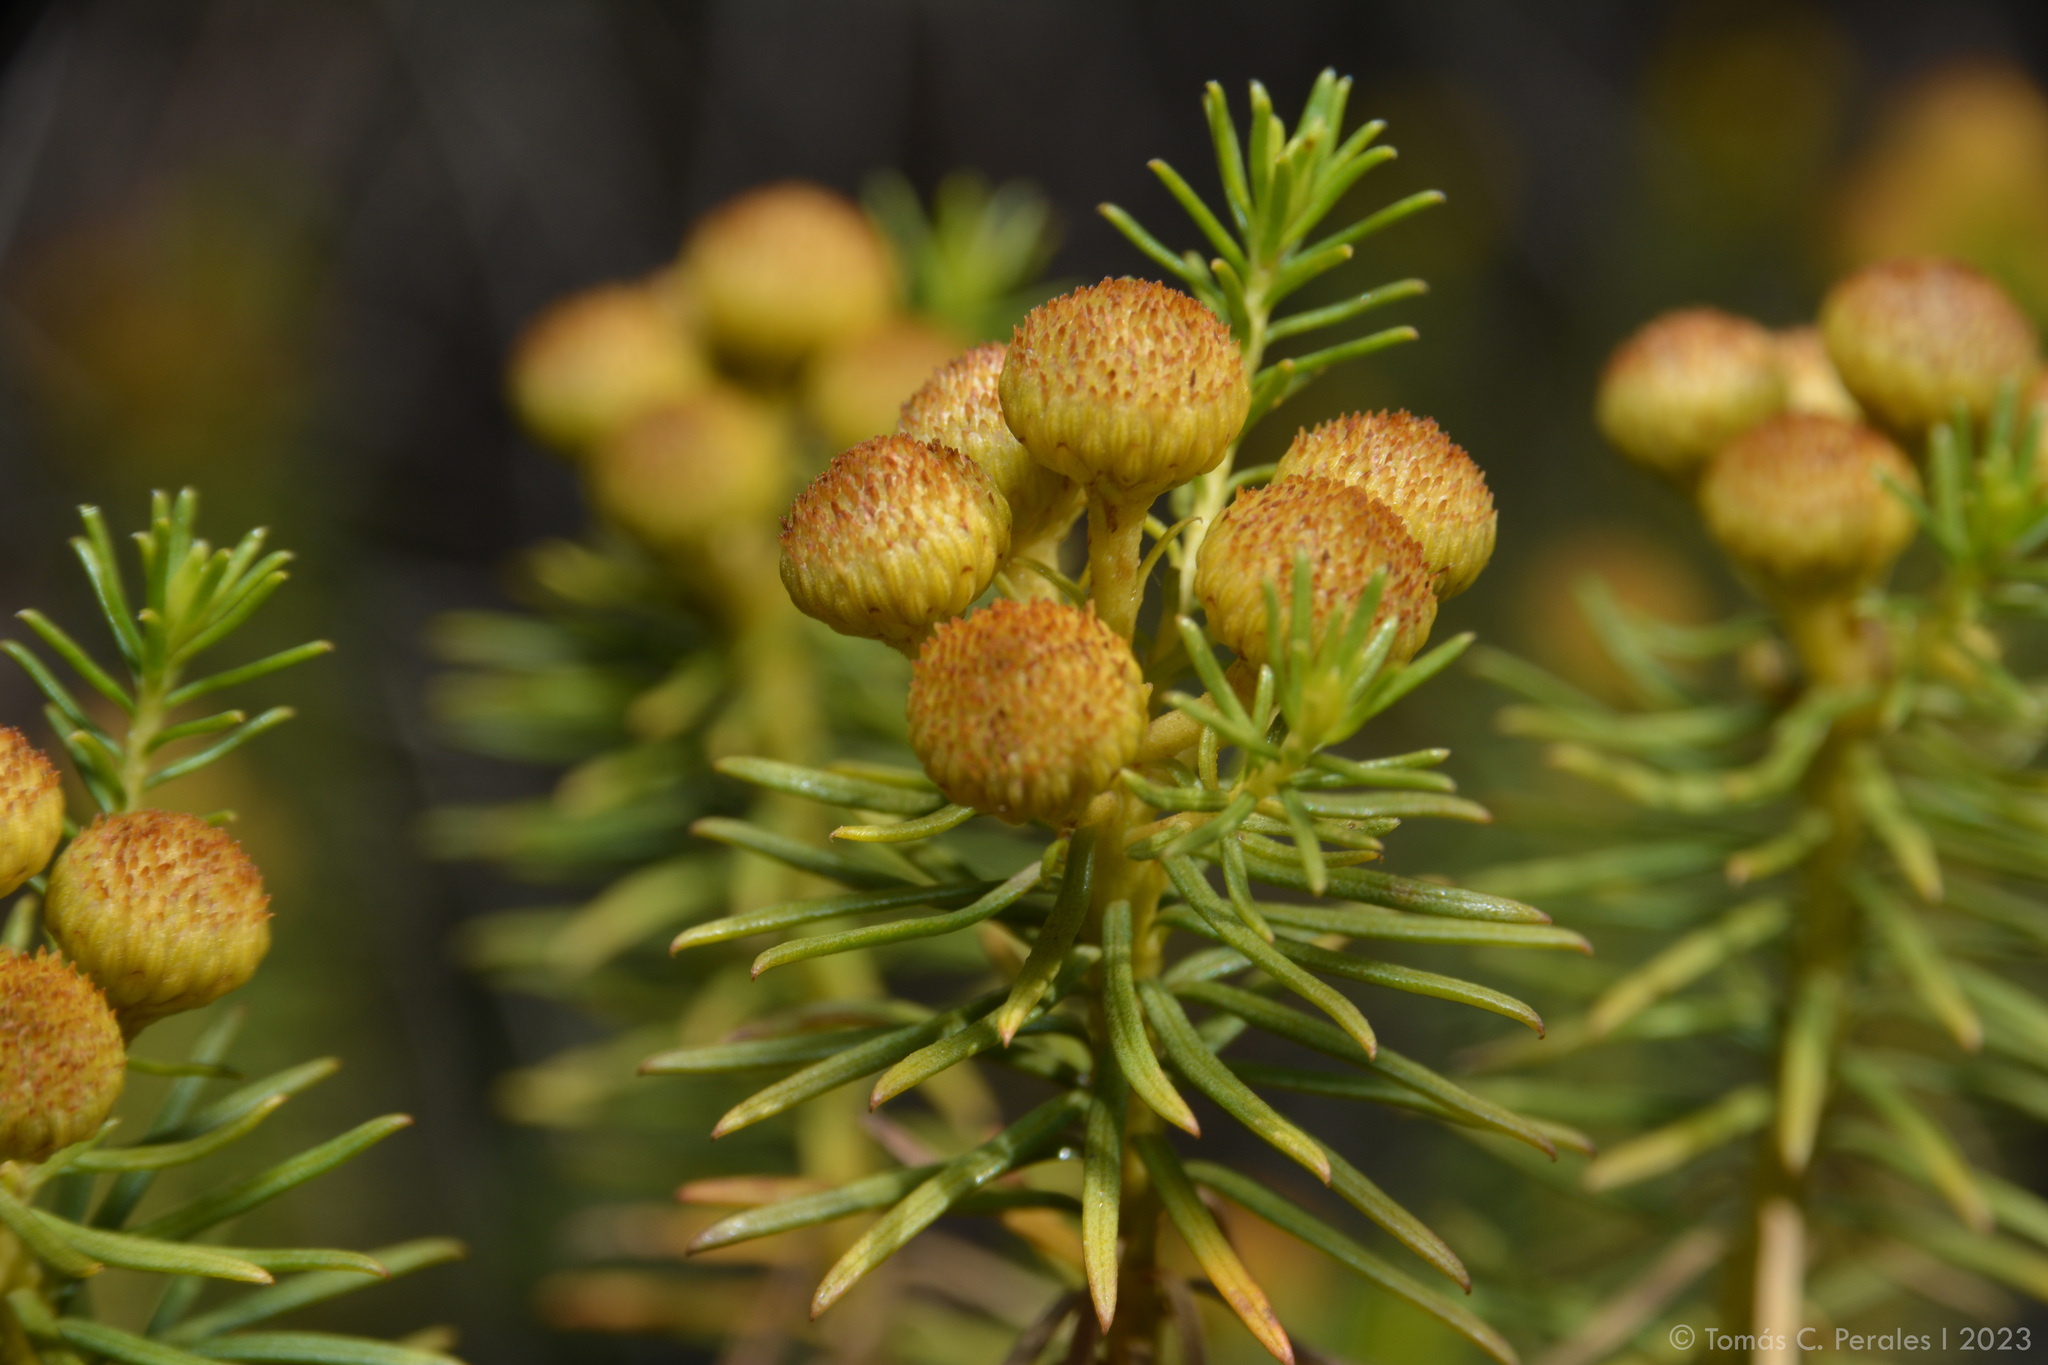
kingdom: Plantae
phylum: Tracheophyta
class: Magnoliopsida
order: Asterales
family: Asteraceae
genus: Baccharis
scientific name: Baccharis aliena
